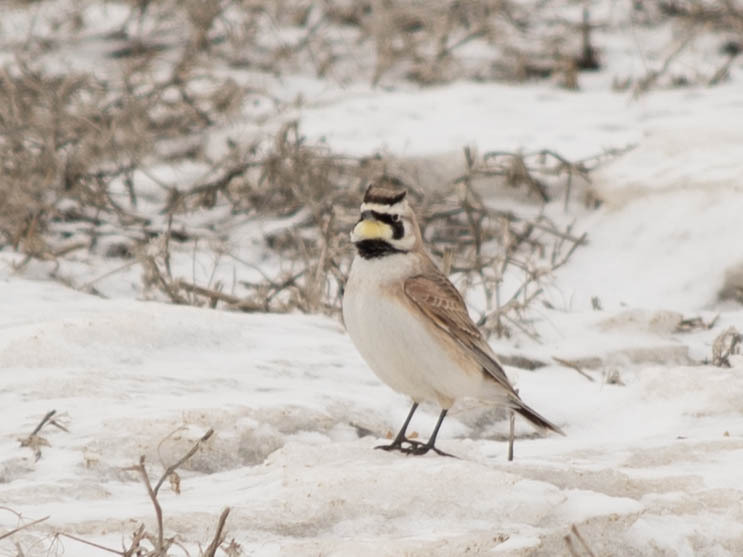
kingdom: Animalia
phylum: Chordata
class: Aves
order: Passeriformes
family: Alaudidae
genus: Eremophila
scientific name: Eremophila alpestris
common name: Horned lark
